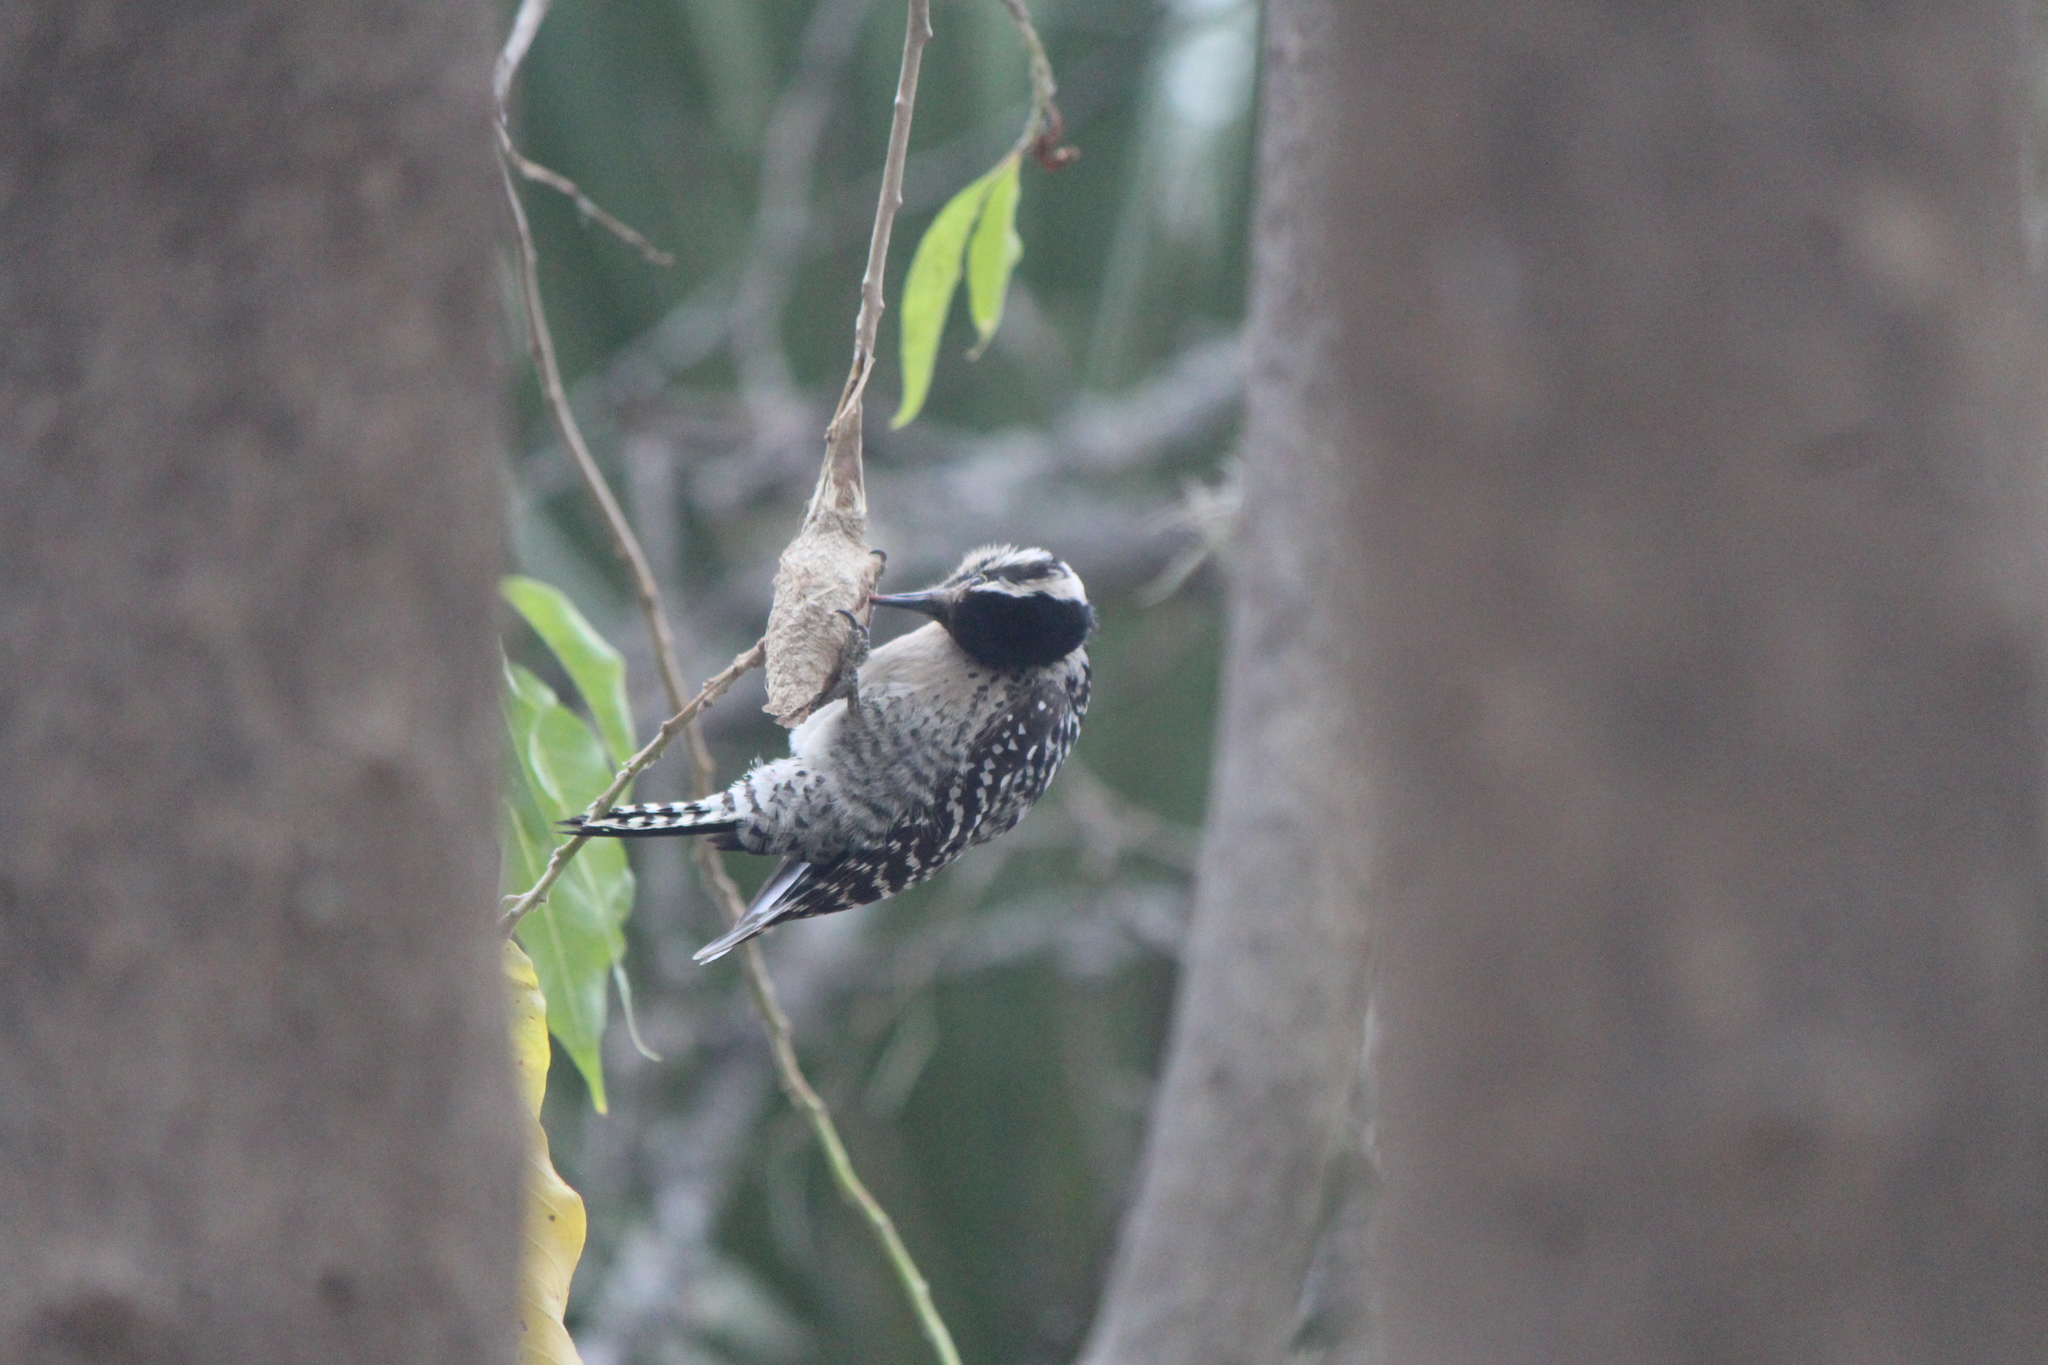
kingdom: Animalia
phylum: Chordata
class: Aves
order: Piciformes
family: Picidae
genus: Dryobates
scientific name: Dryobates scalaris
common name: Ladder-backed woodpecker
